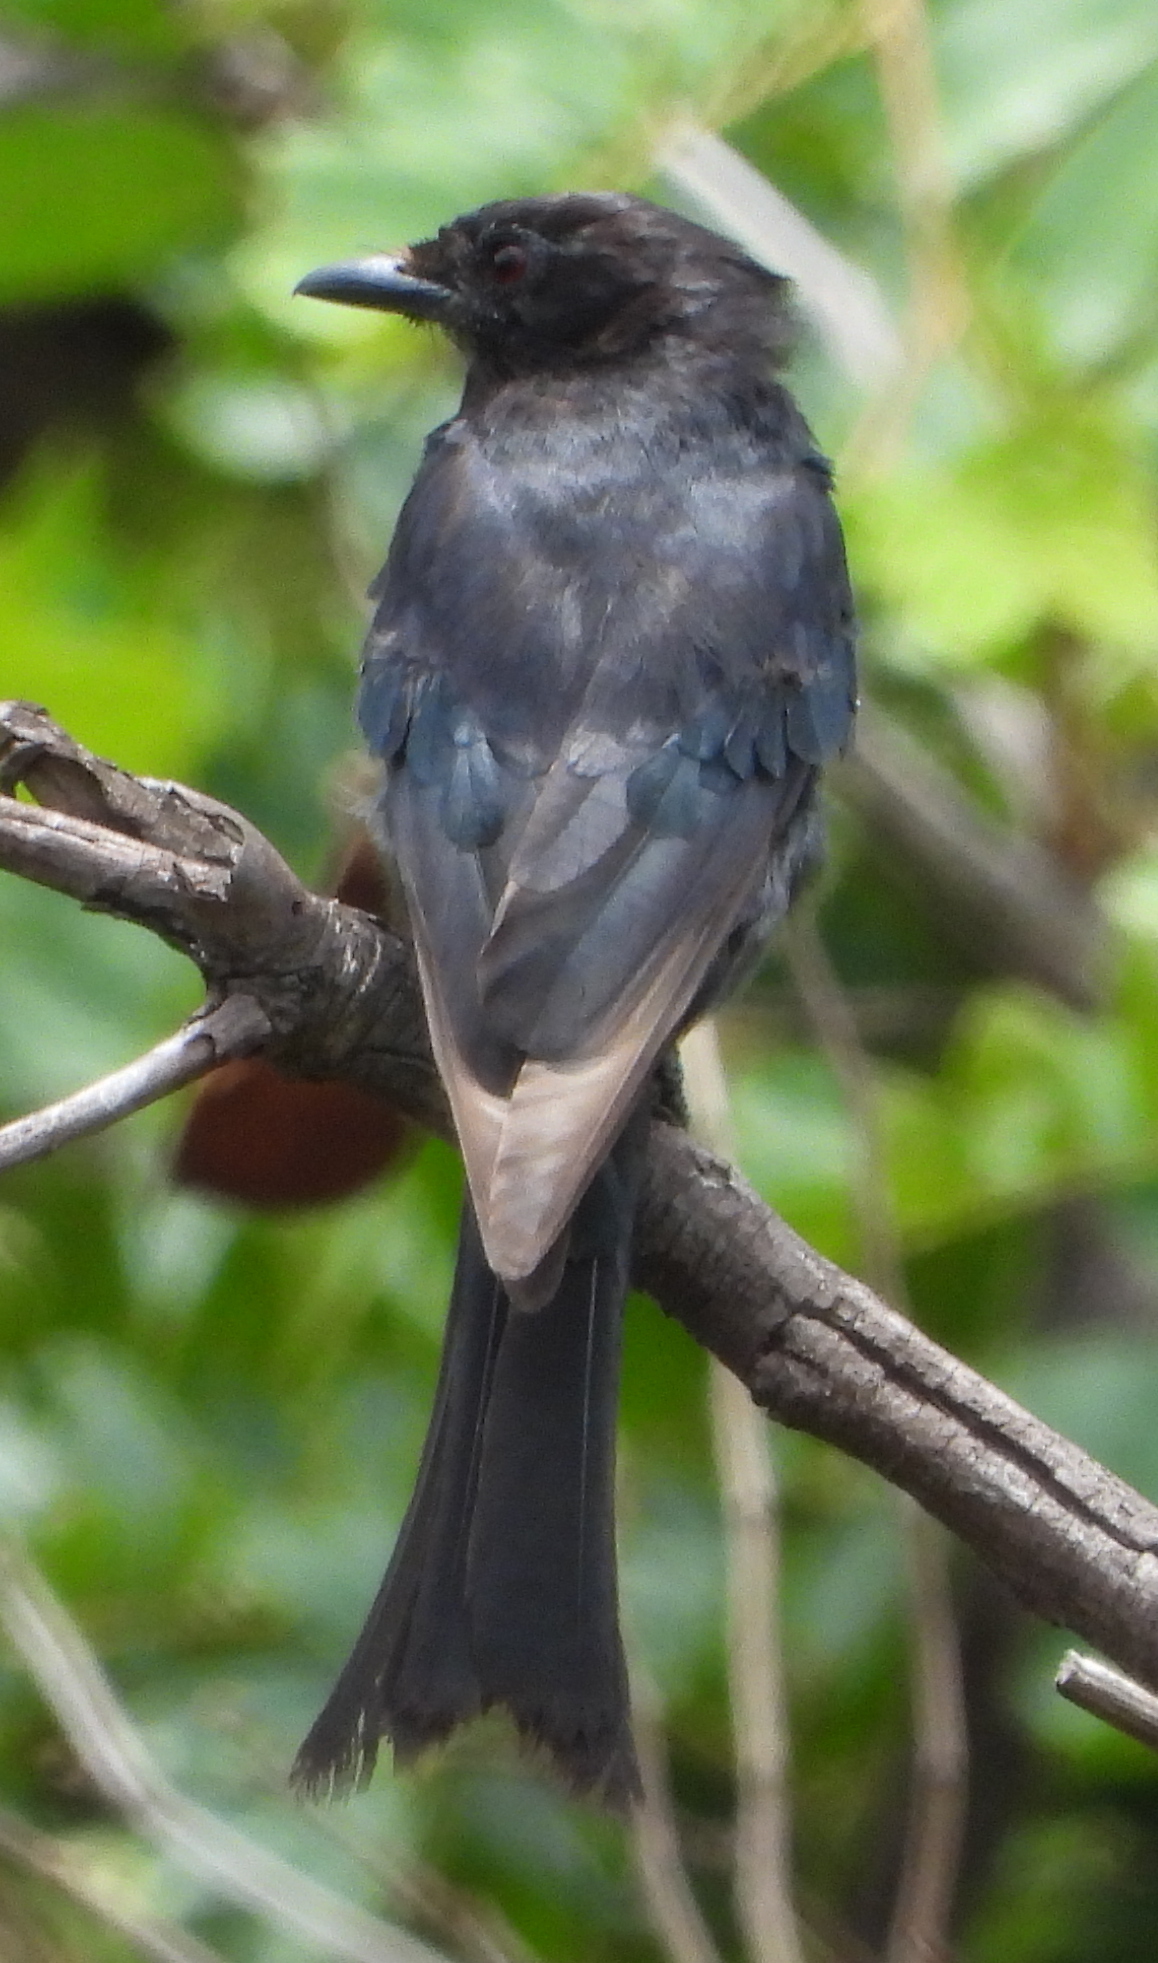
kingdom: Animalia
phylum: Chordata
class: Aves
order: Passeriformes
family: Dicruridae
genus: Dicrurus
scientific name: Dicrurus adsimilis
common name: Fork-tailed drongo
